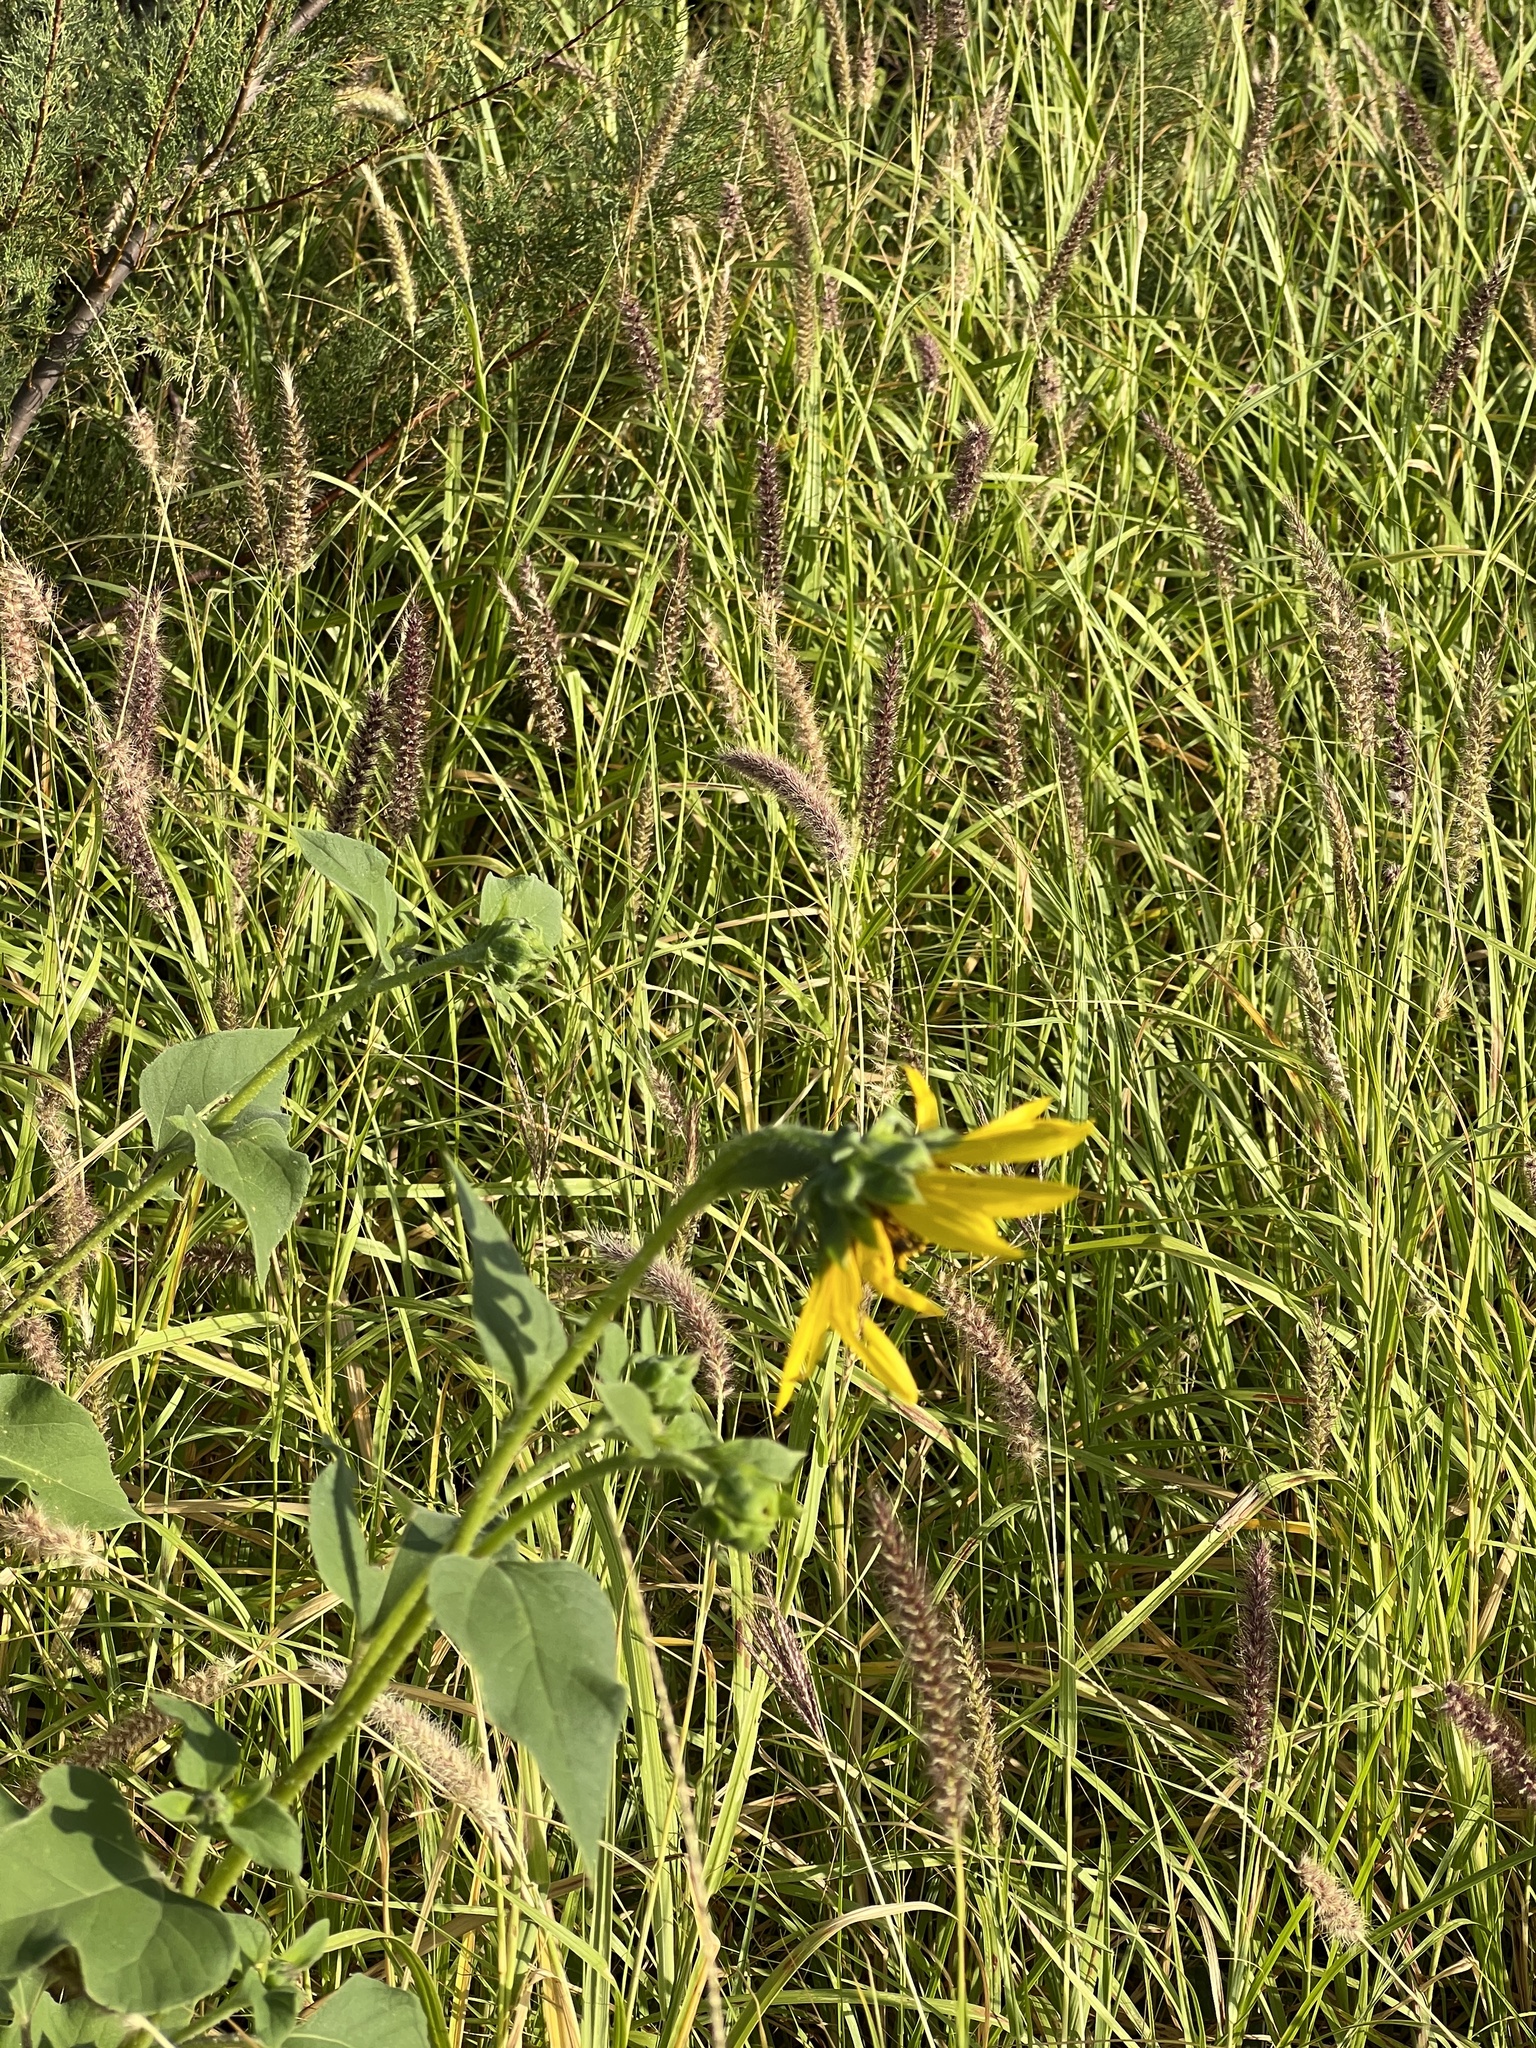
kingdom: Plantae
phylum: Tracheophyta
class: Magnoliopsida
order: Asterales
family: Asteraceae
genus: Helianthus
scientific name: Helianthus annuus
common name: Sunflower
